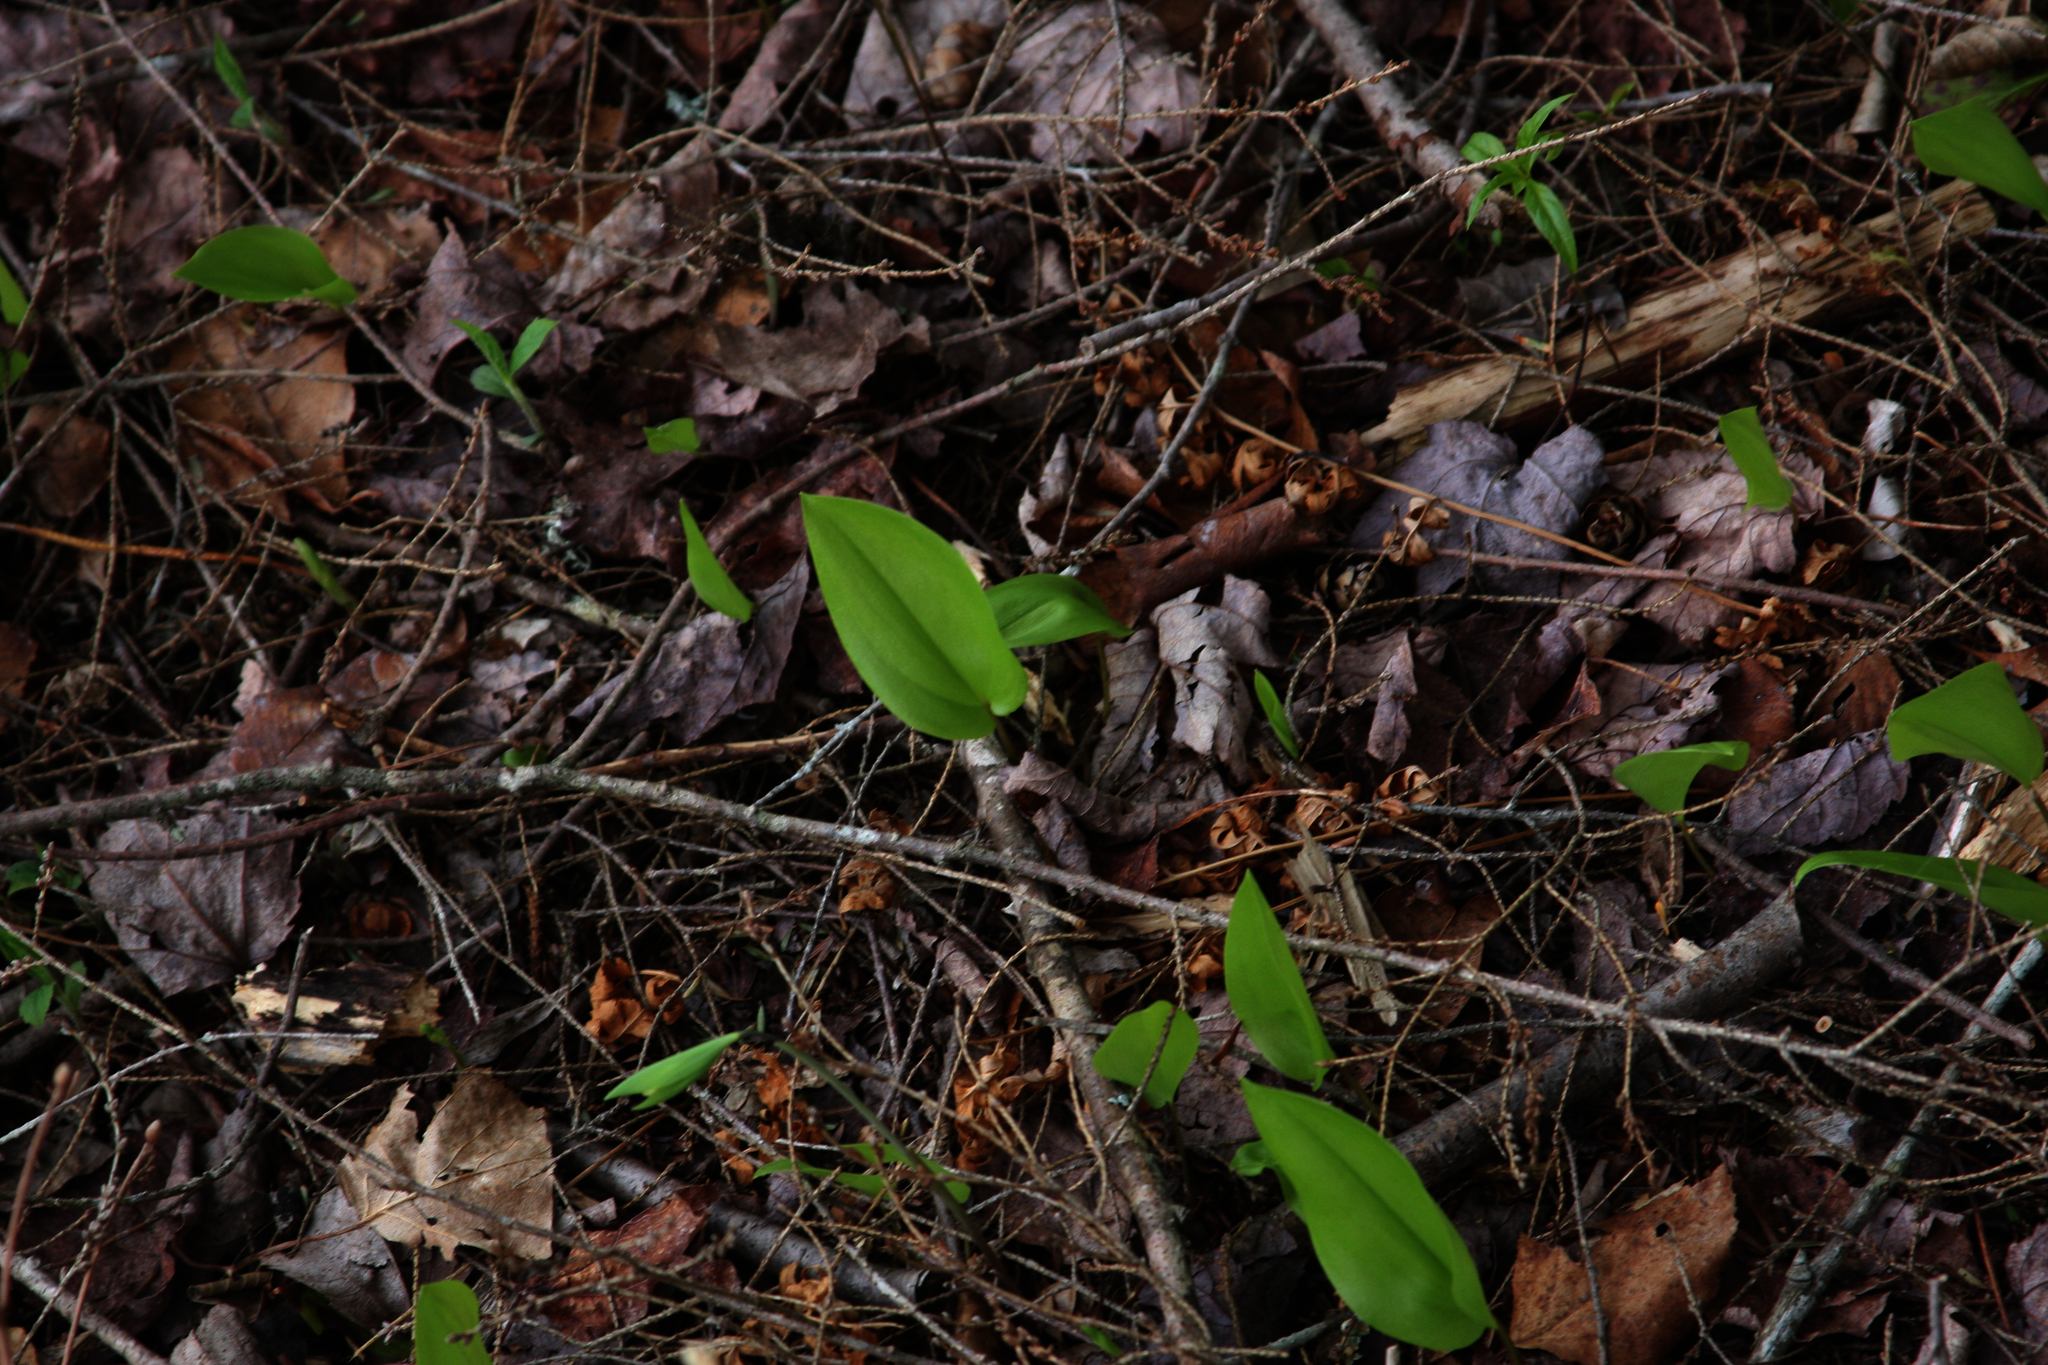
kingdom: Plantae
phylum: Tracheophyta
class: Liliopsida
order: Asparagales
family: Asparagaceae
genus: Maianthemum
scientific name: Maianthemum canadense
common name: False lily-of-the-valley
